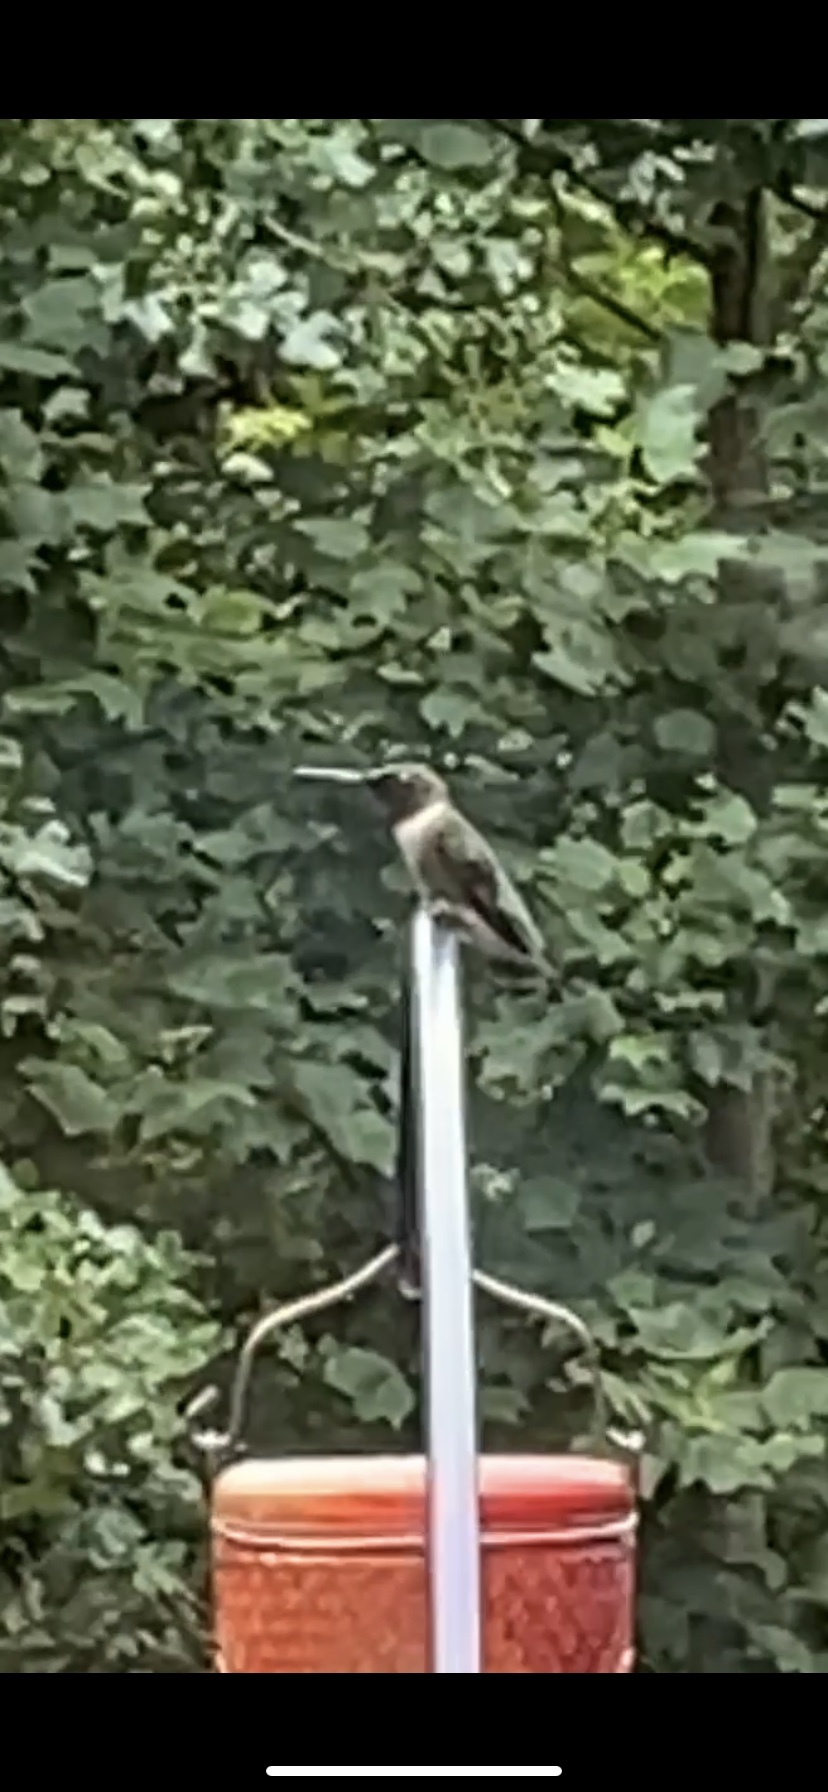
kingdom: Animalia
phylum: Chordata
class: Aves
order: Apodiformes
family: Trochilidae
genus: Archilochus
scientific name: Archilochus colubris
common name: Ruby-throated hummingbird
